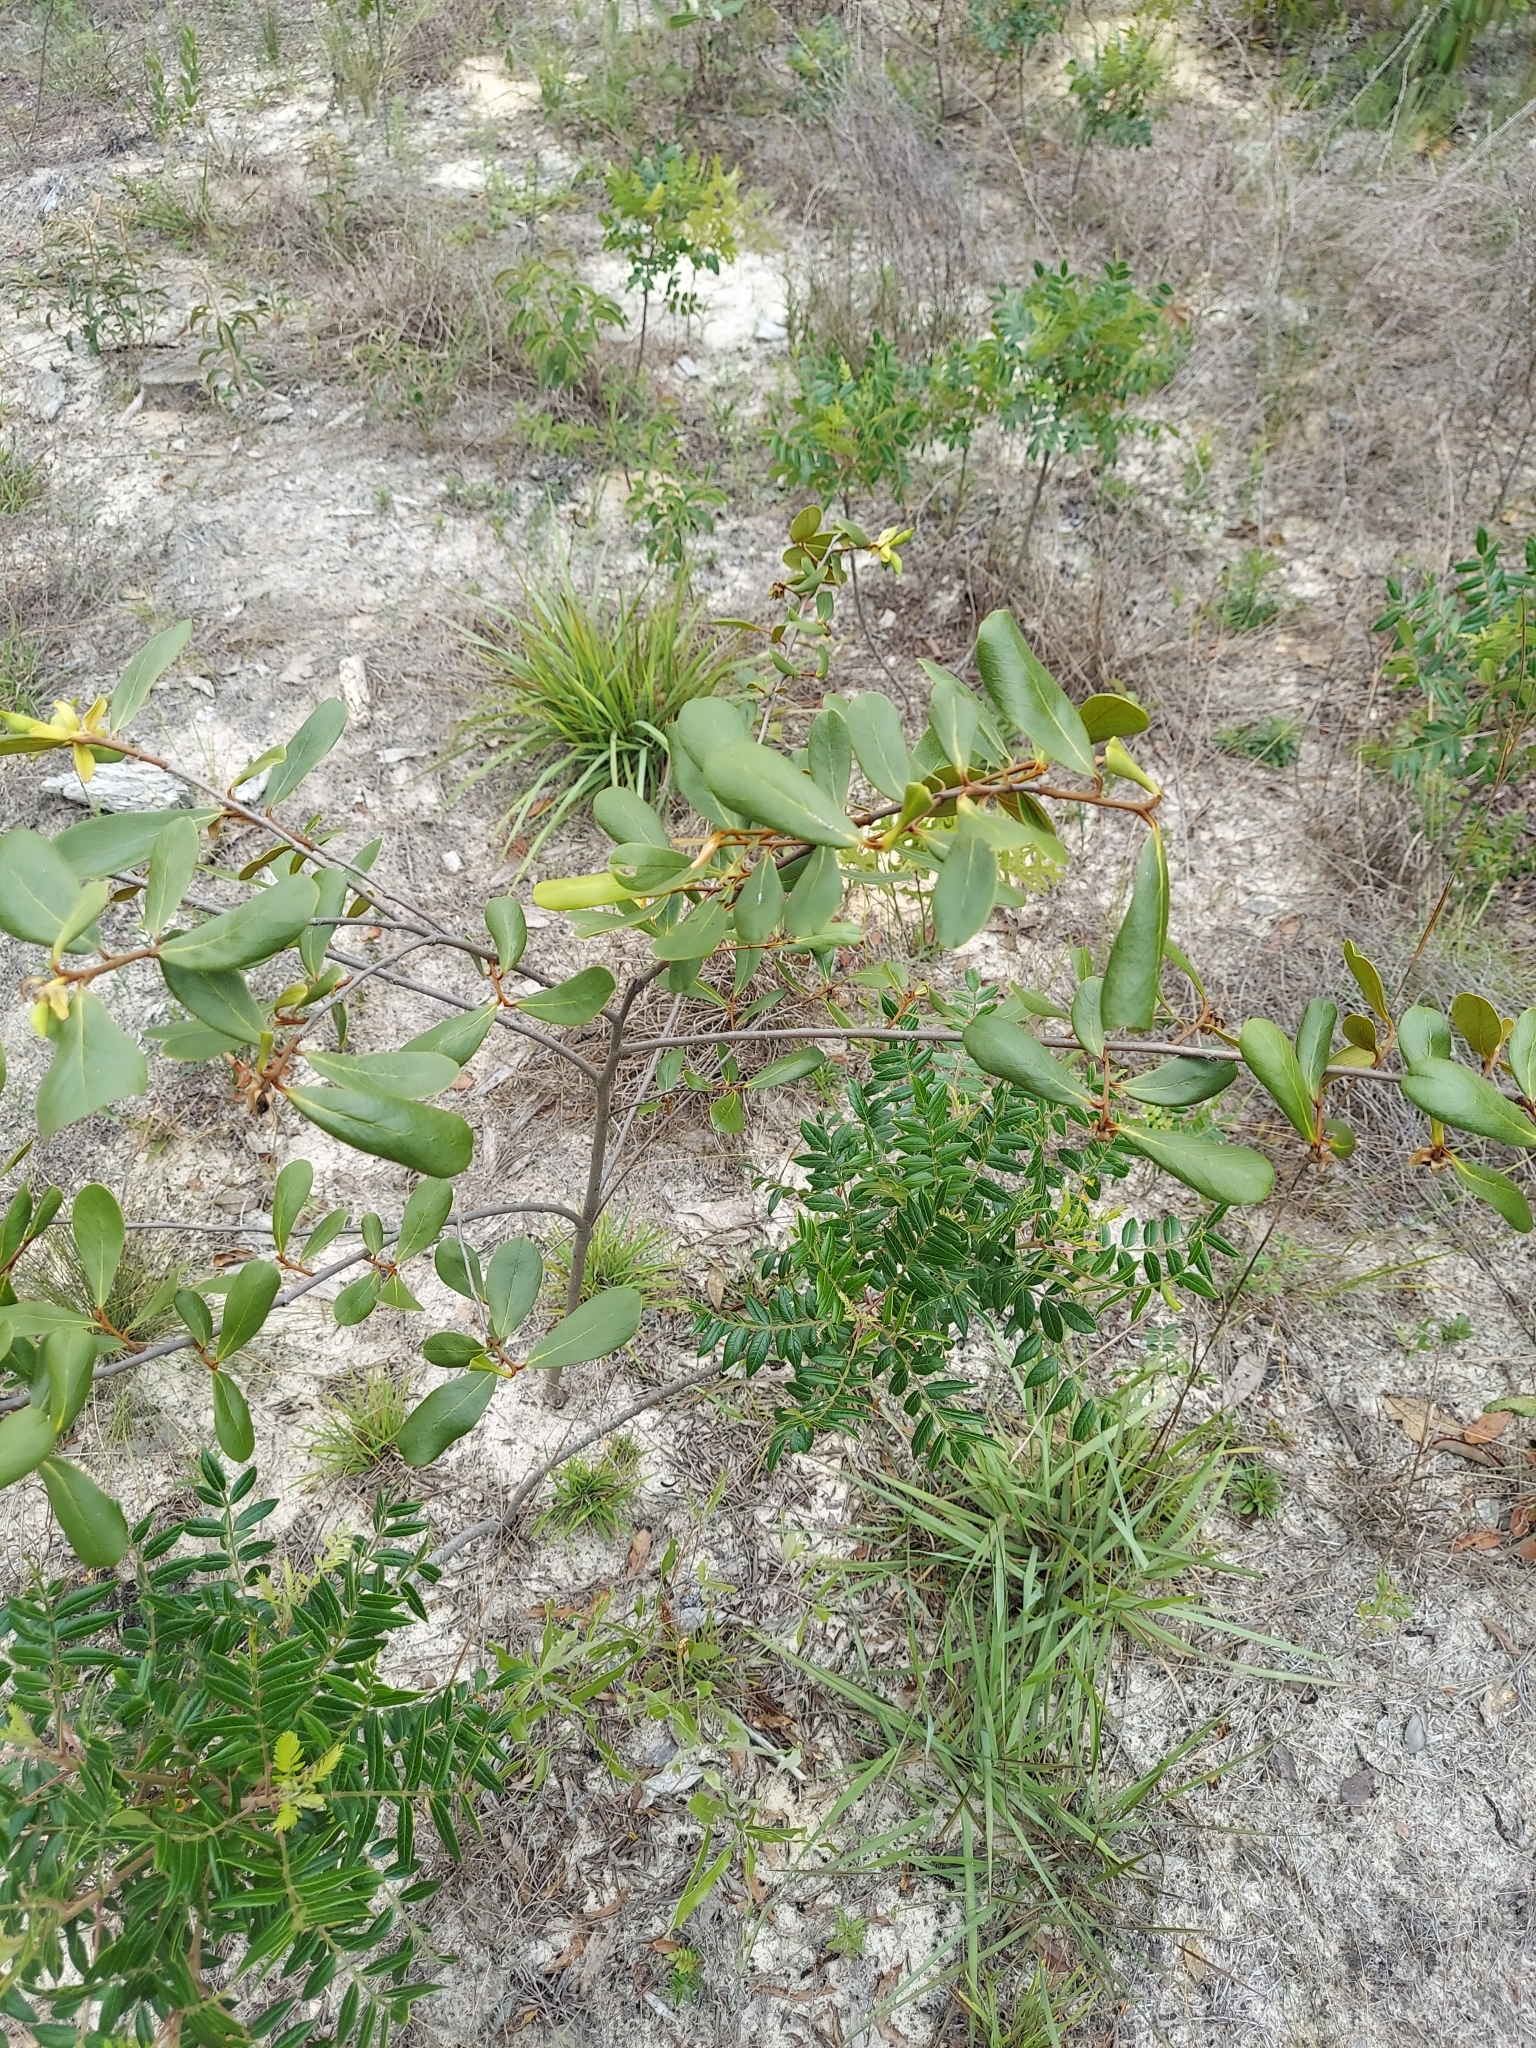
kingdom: Plantae
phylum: Tracheophyta
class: Magnoliopsida
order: Magnoliales
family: Annonaceae
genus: Asimina
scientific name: Asimina obovata
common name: Flag pawpaw
